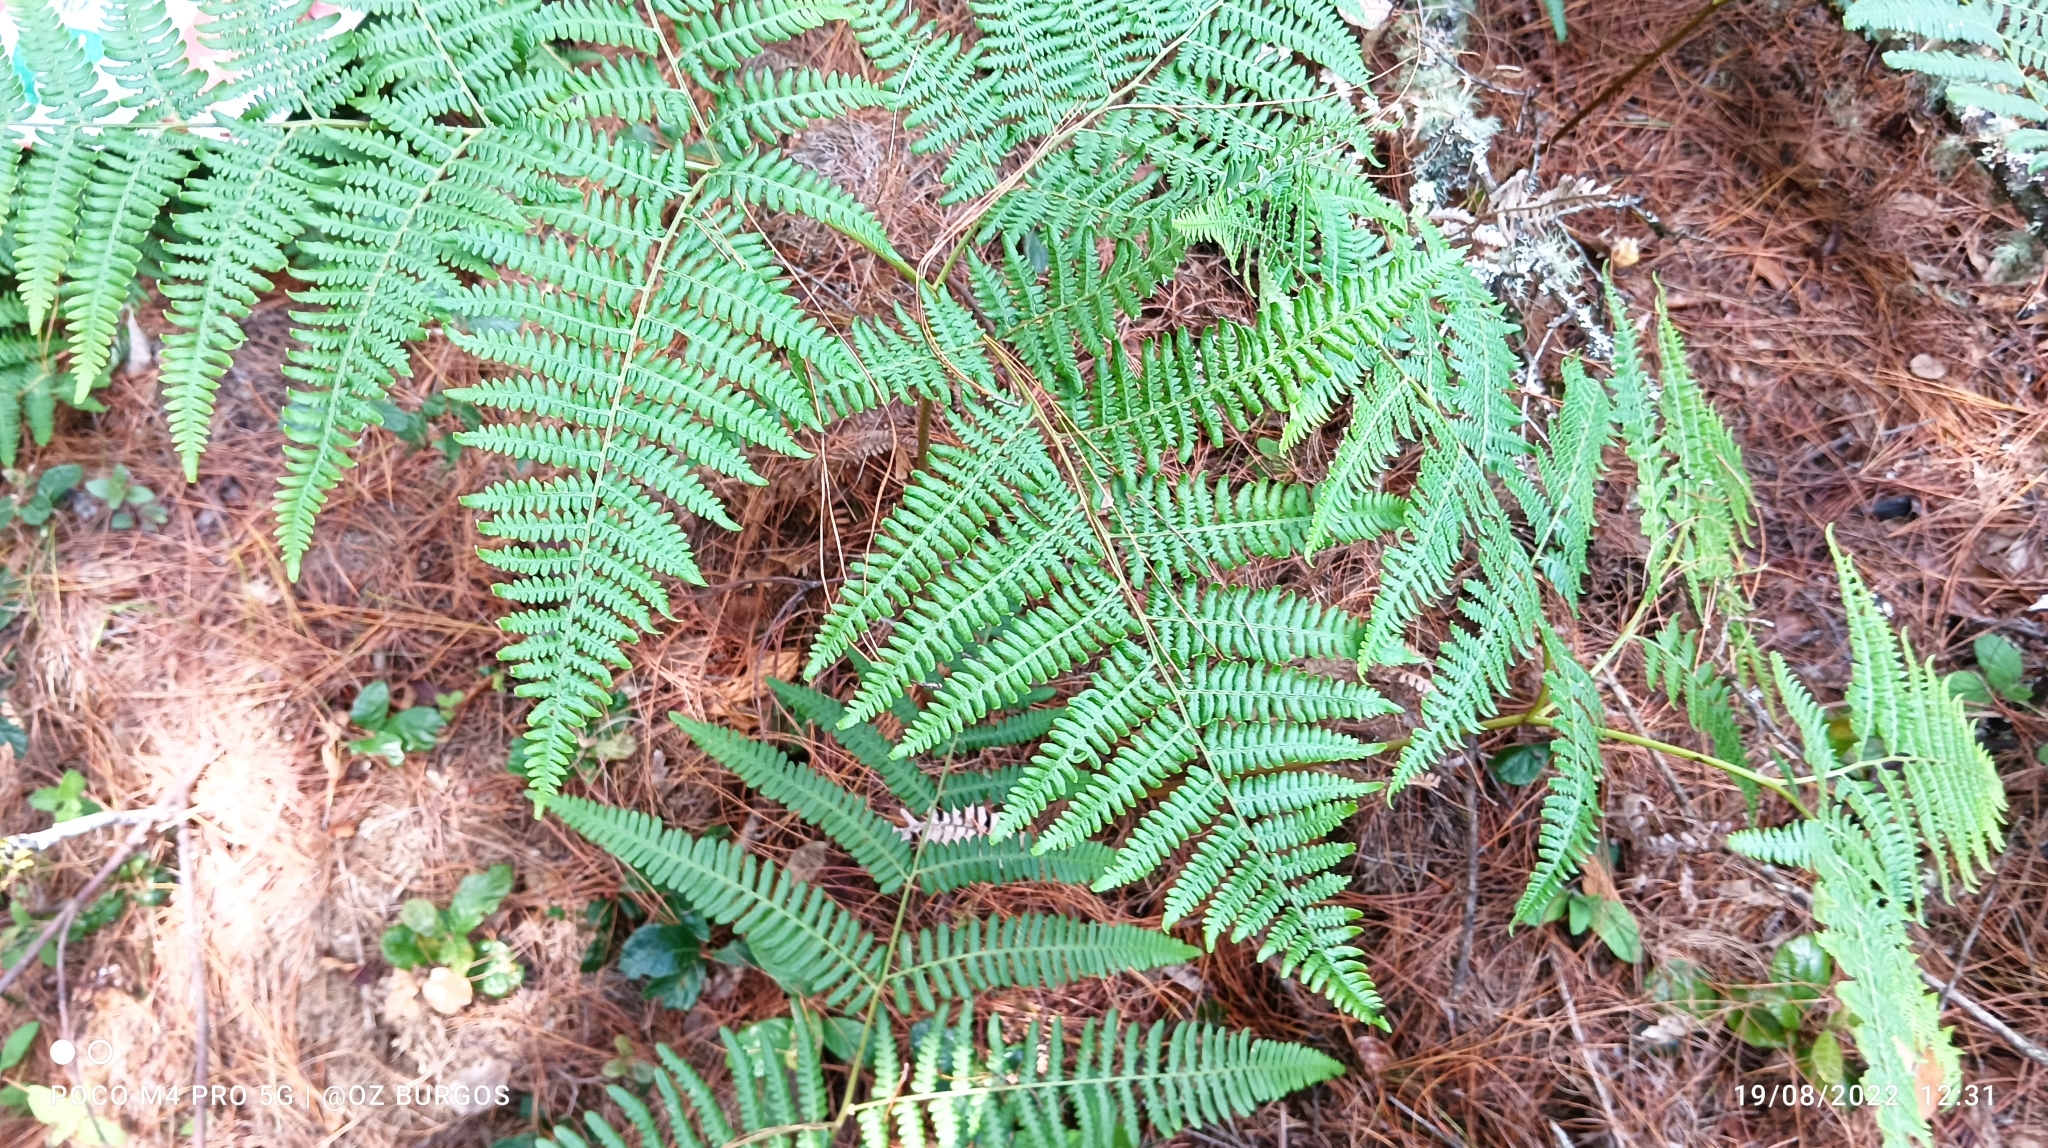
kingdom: Plantae
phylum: Tracheophyta
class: Polypodiopsida
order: Polypodiales
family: Dennstaedtiaceae
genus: Pteridium
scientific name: Pteridium aquilinum
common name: Bracken
